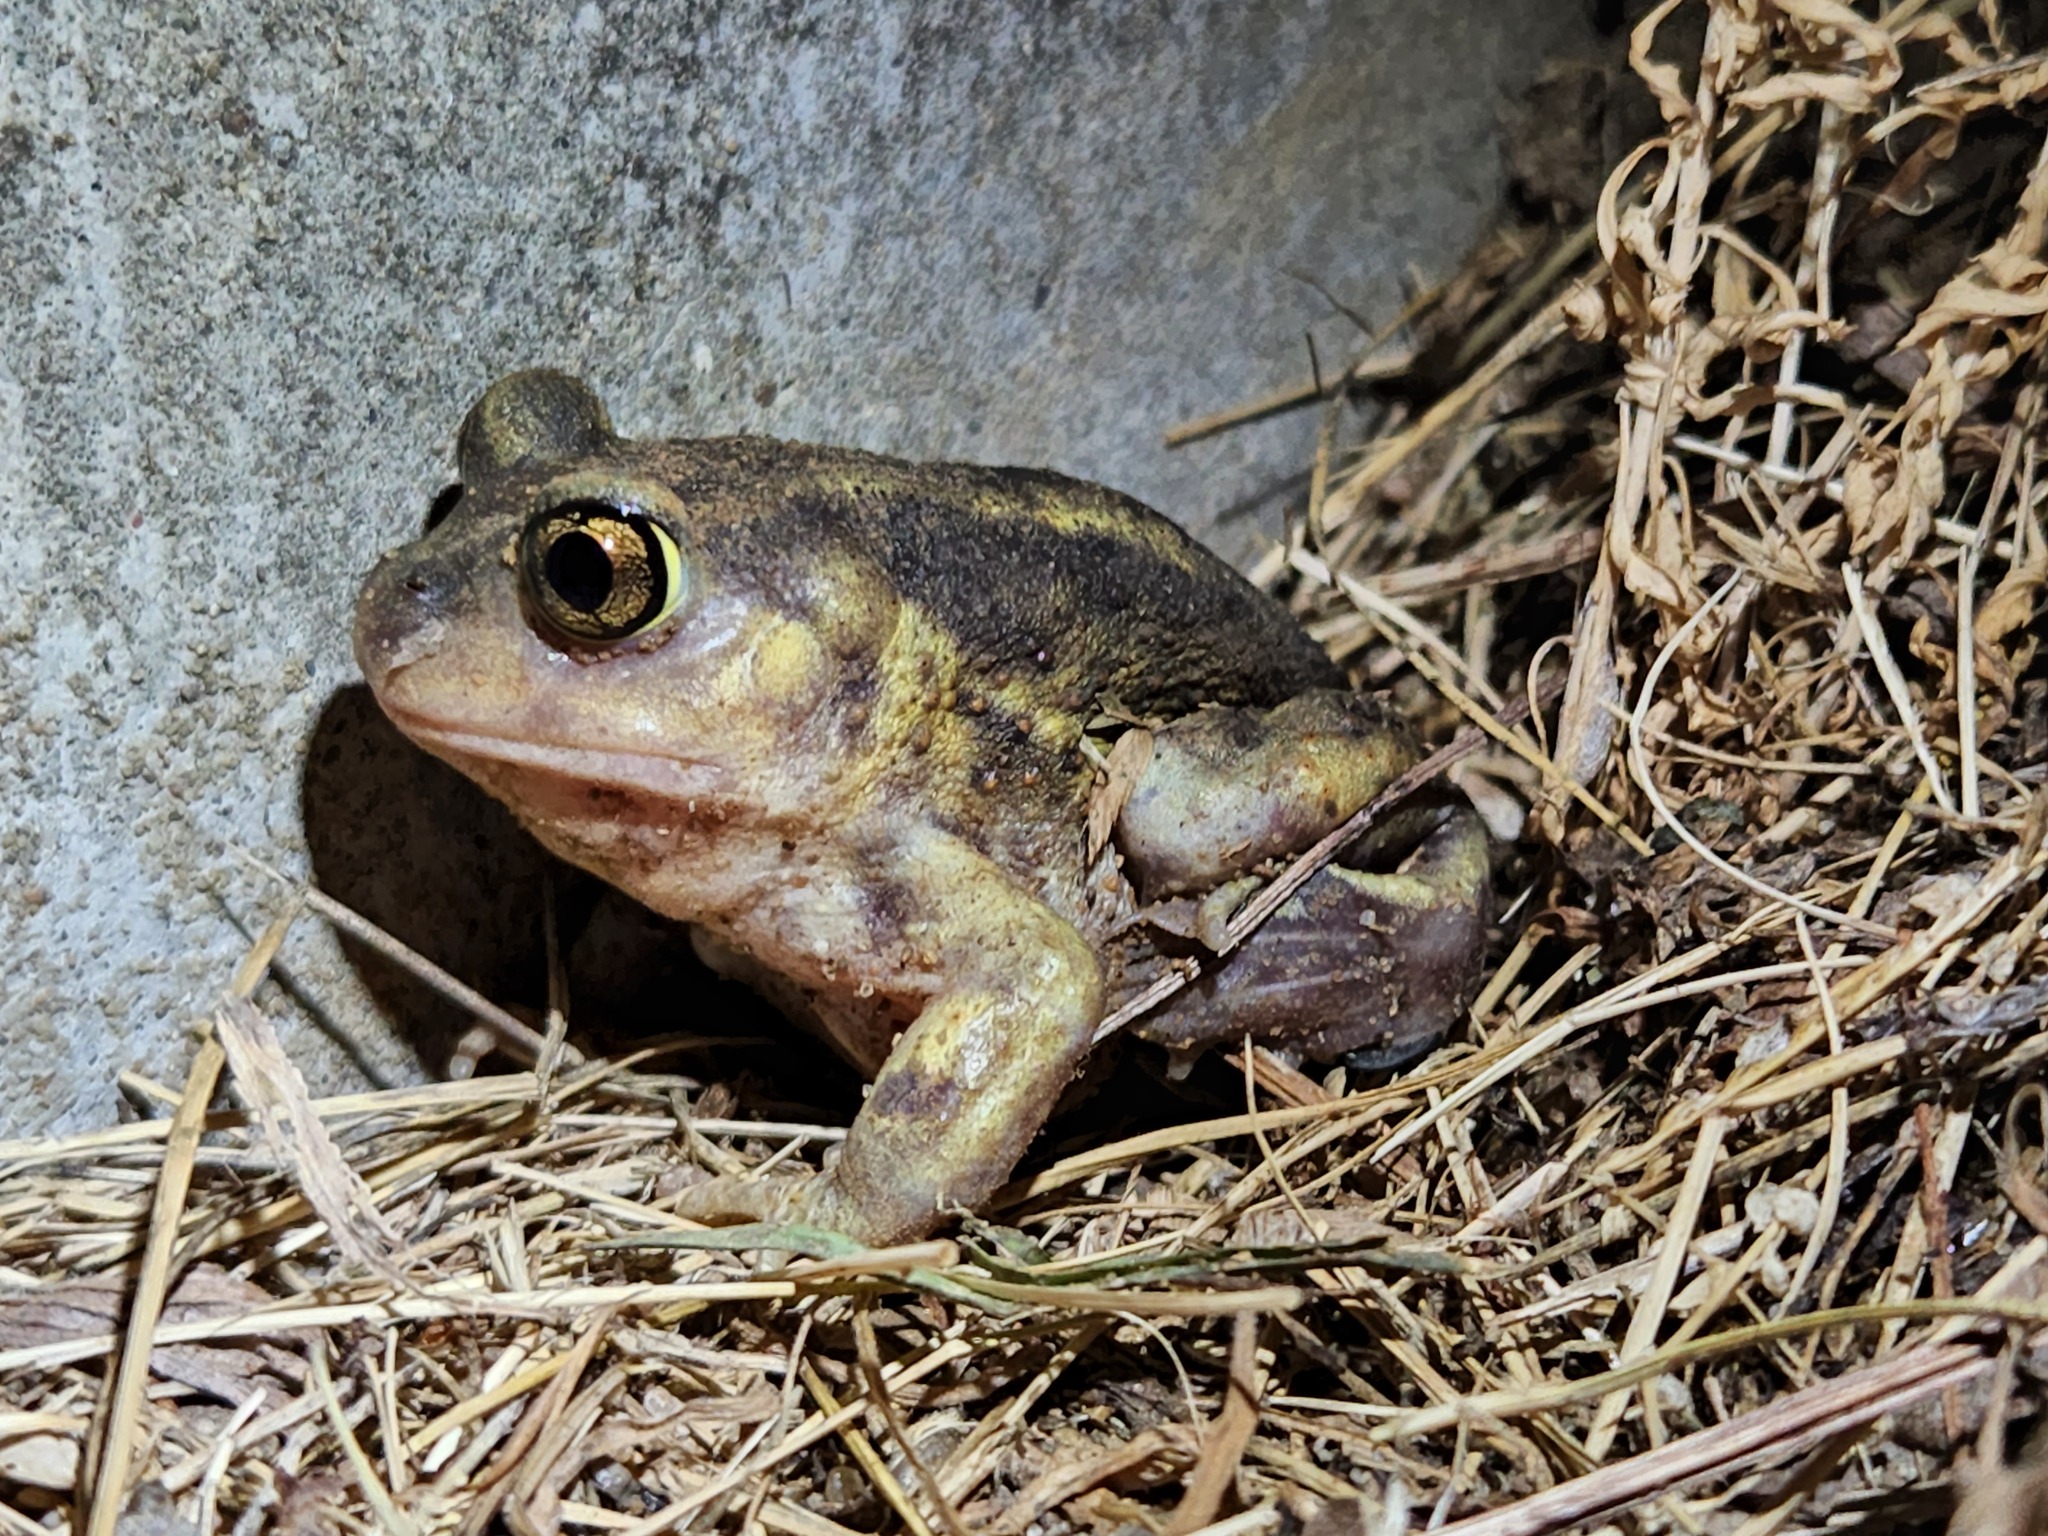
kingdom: Animalia
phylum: Chordata
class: Amphibia
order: Anura
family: Scaphiopodidae
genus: Scaphiopus
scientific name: Scaphiopus holbrookii
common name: Eastern spadefoot toad
